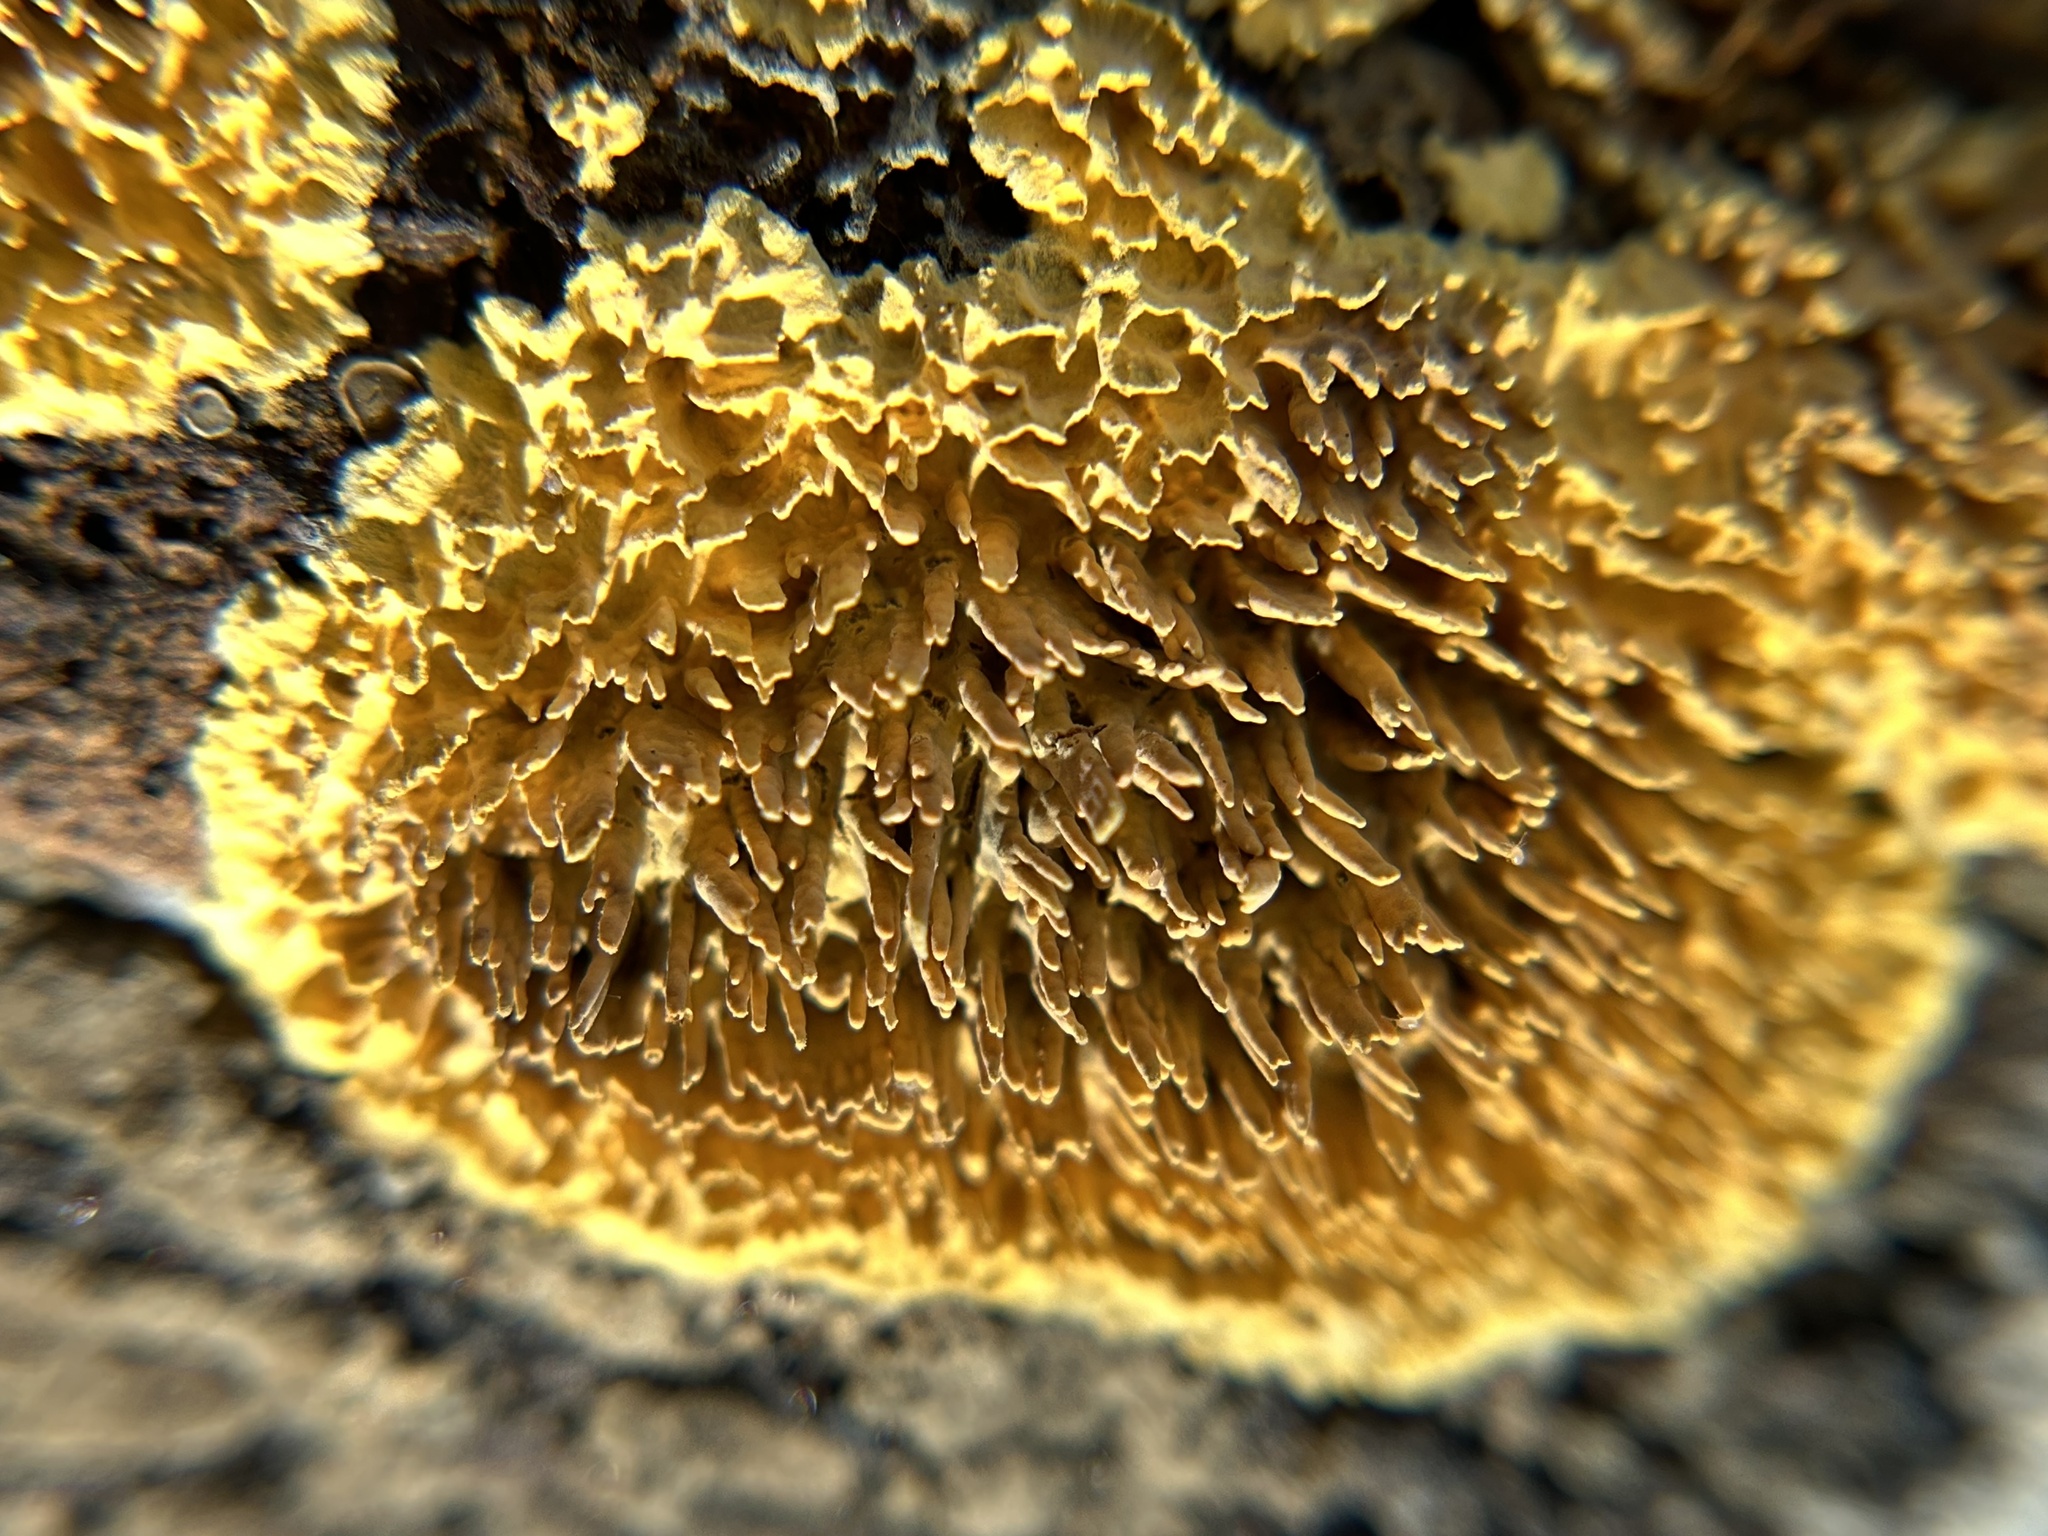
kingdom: Fungi
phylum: Basidiomycota
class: Agaricomycetes
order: Polyporales
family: Phanerochaetaceae
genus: Pirex
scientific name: Pirex concentricus
